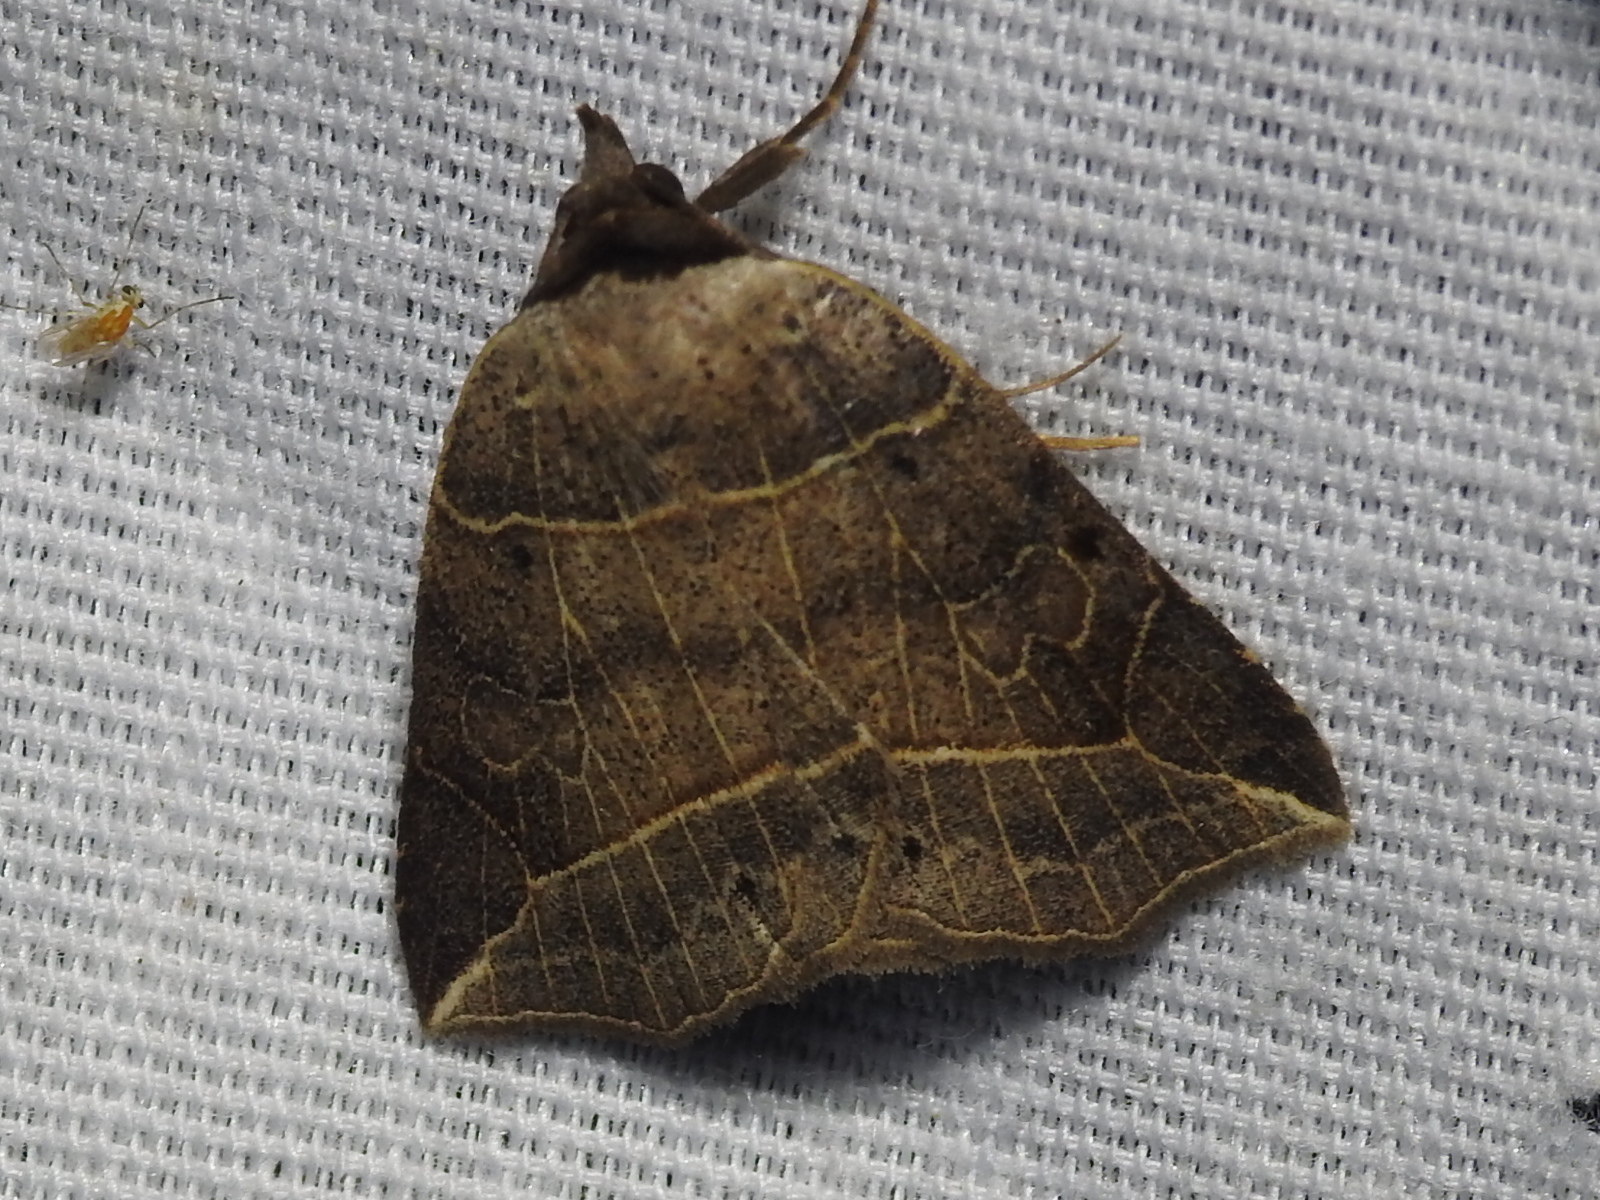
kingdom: Animalia
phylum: Arthropoda
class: Insecta
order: Lepidoptera
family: Erebidae
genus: Isogona
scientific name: Isogona tenuis
